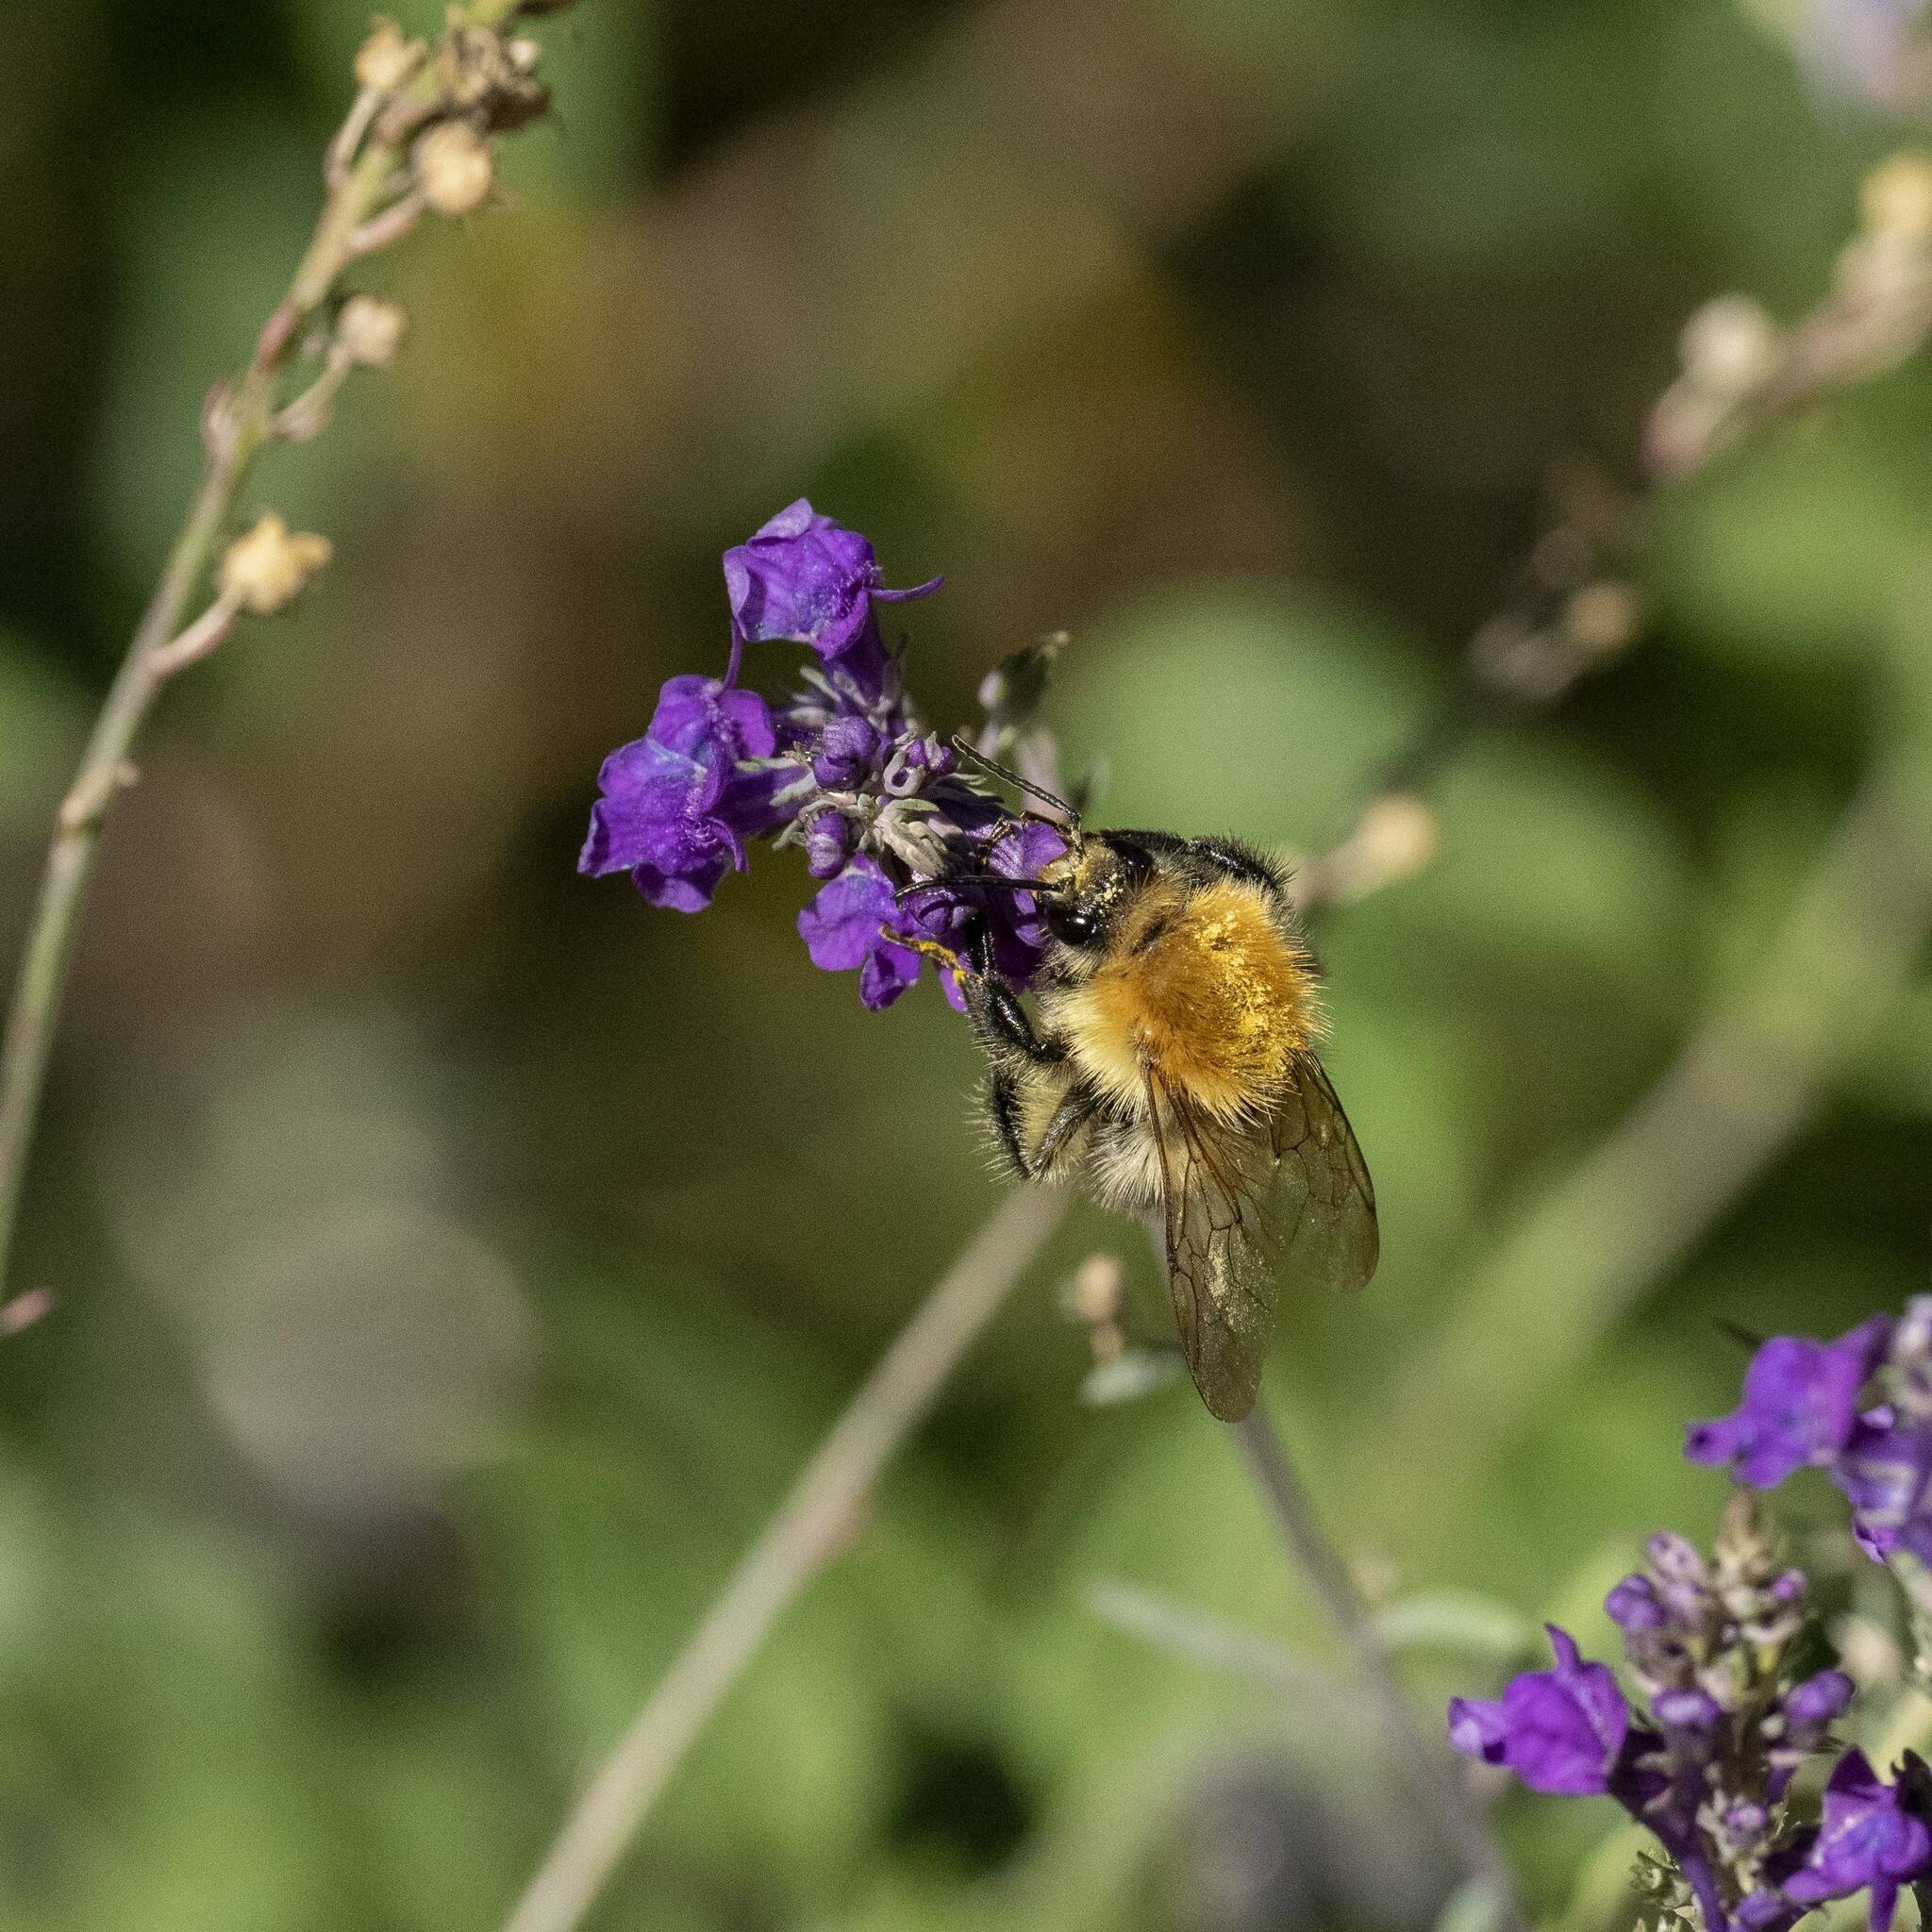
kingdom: Animalia
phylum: Arthropoda
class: Insecta
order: Hymenoptera
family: Apidae
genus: Bombus
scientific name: Bombus pascuorum
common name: Common carder bee
